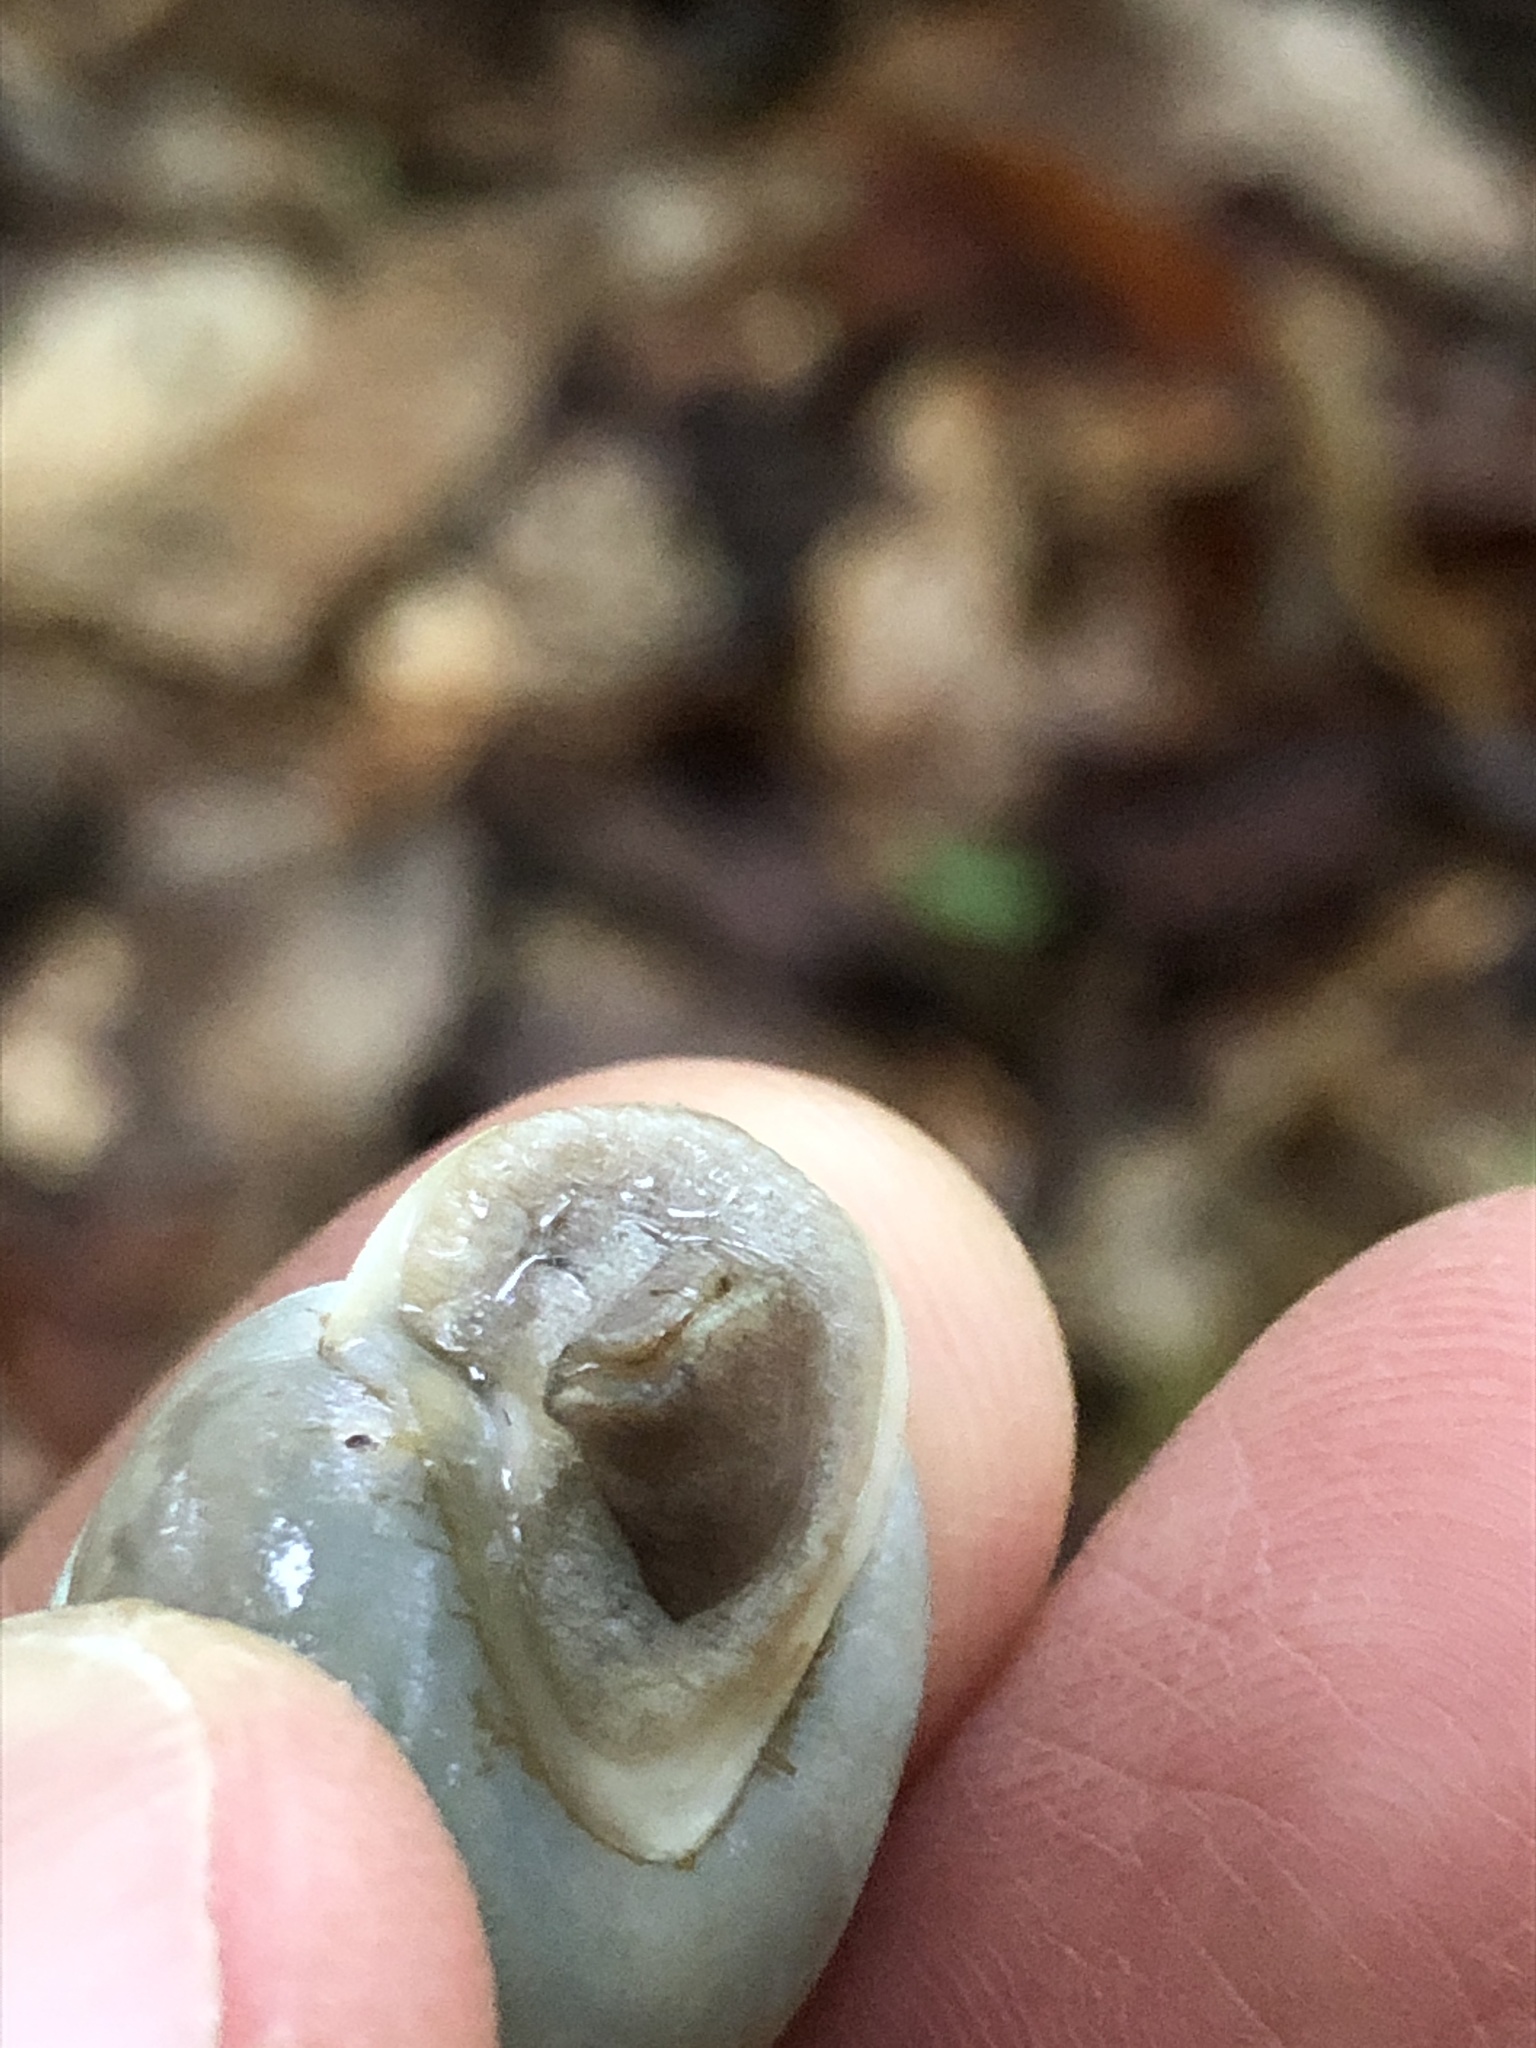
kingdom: Animalia
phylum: Mollusca
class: Gastropoda
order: Stylommatophora
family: Polygyridae
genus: Mesodon
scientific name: Mesodon elevatus
